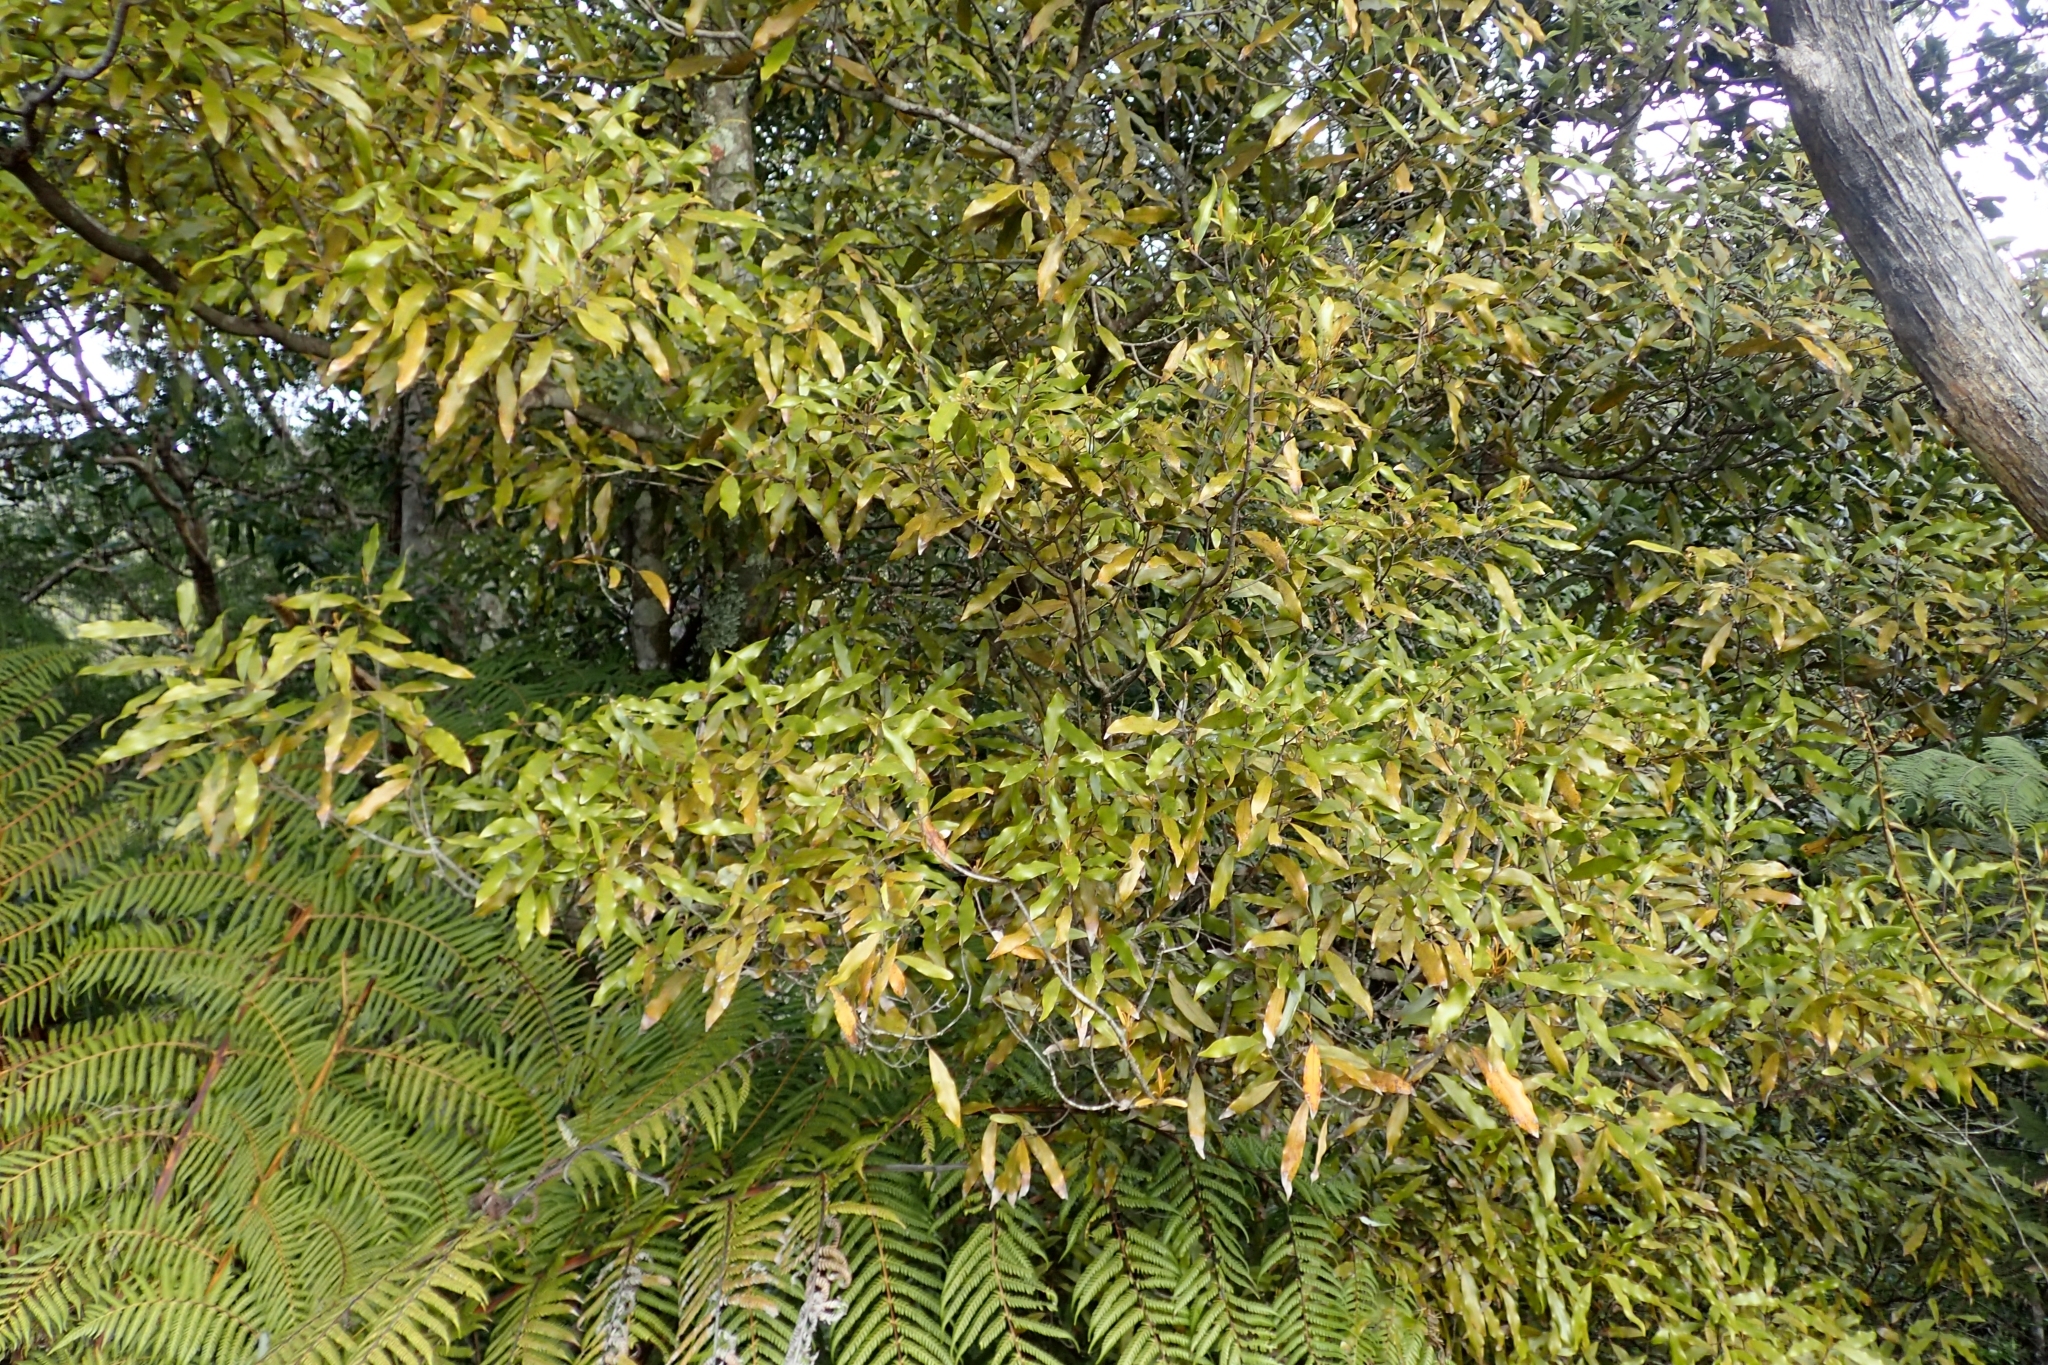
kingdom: Plantae
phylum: Tracheophyta
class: Magnoliopsida
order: Laurales
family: Lauraceae
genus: Beilschmiedia
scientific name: Beilschmiedia tawa
